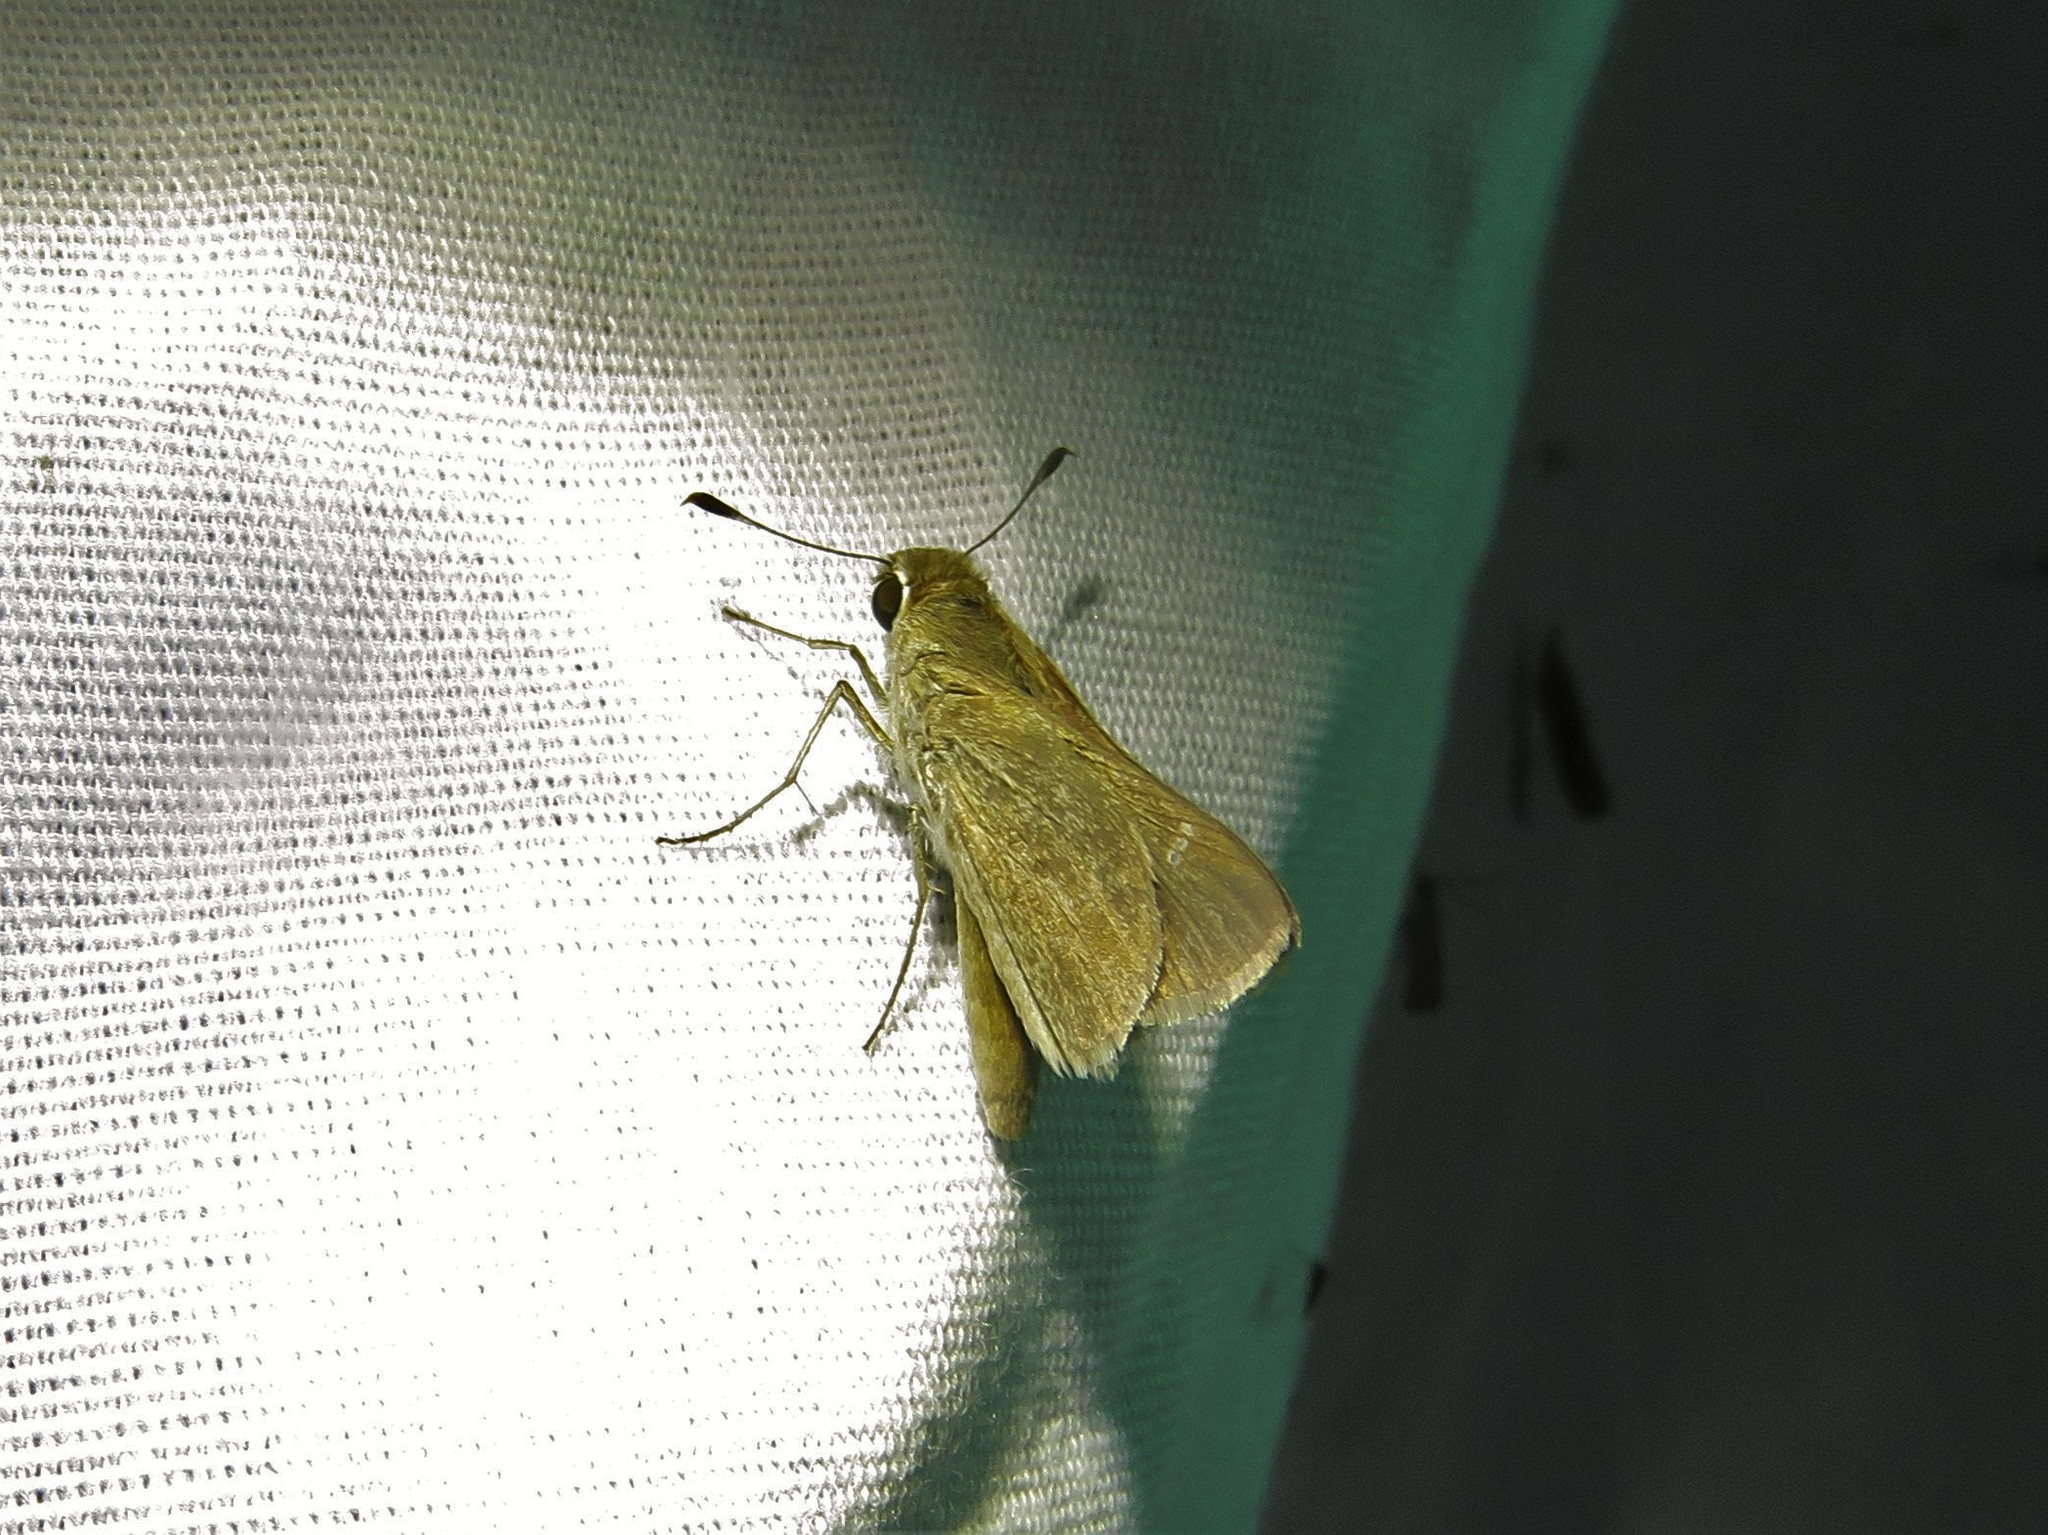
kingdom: Animalia
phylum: Arthropoda
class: Insecta
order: Lepidoptera
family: Hesperiidae
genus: Lerodea
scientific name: Lerodea eufala
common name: Eufala skipper
